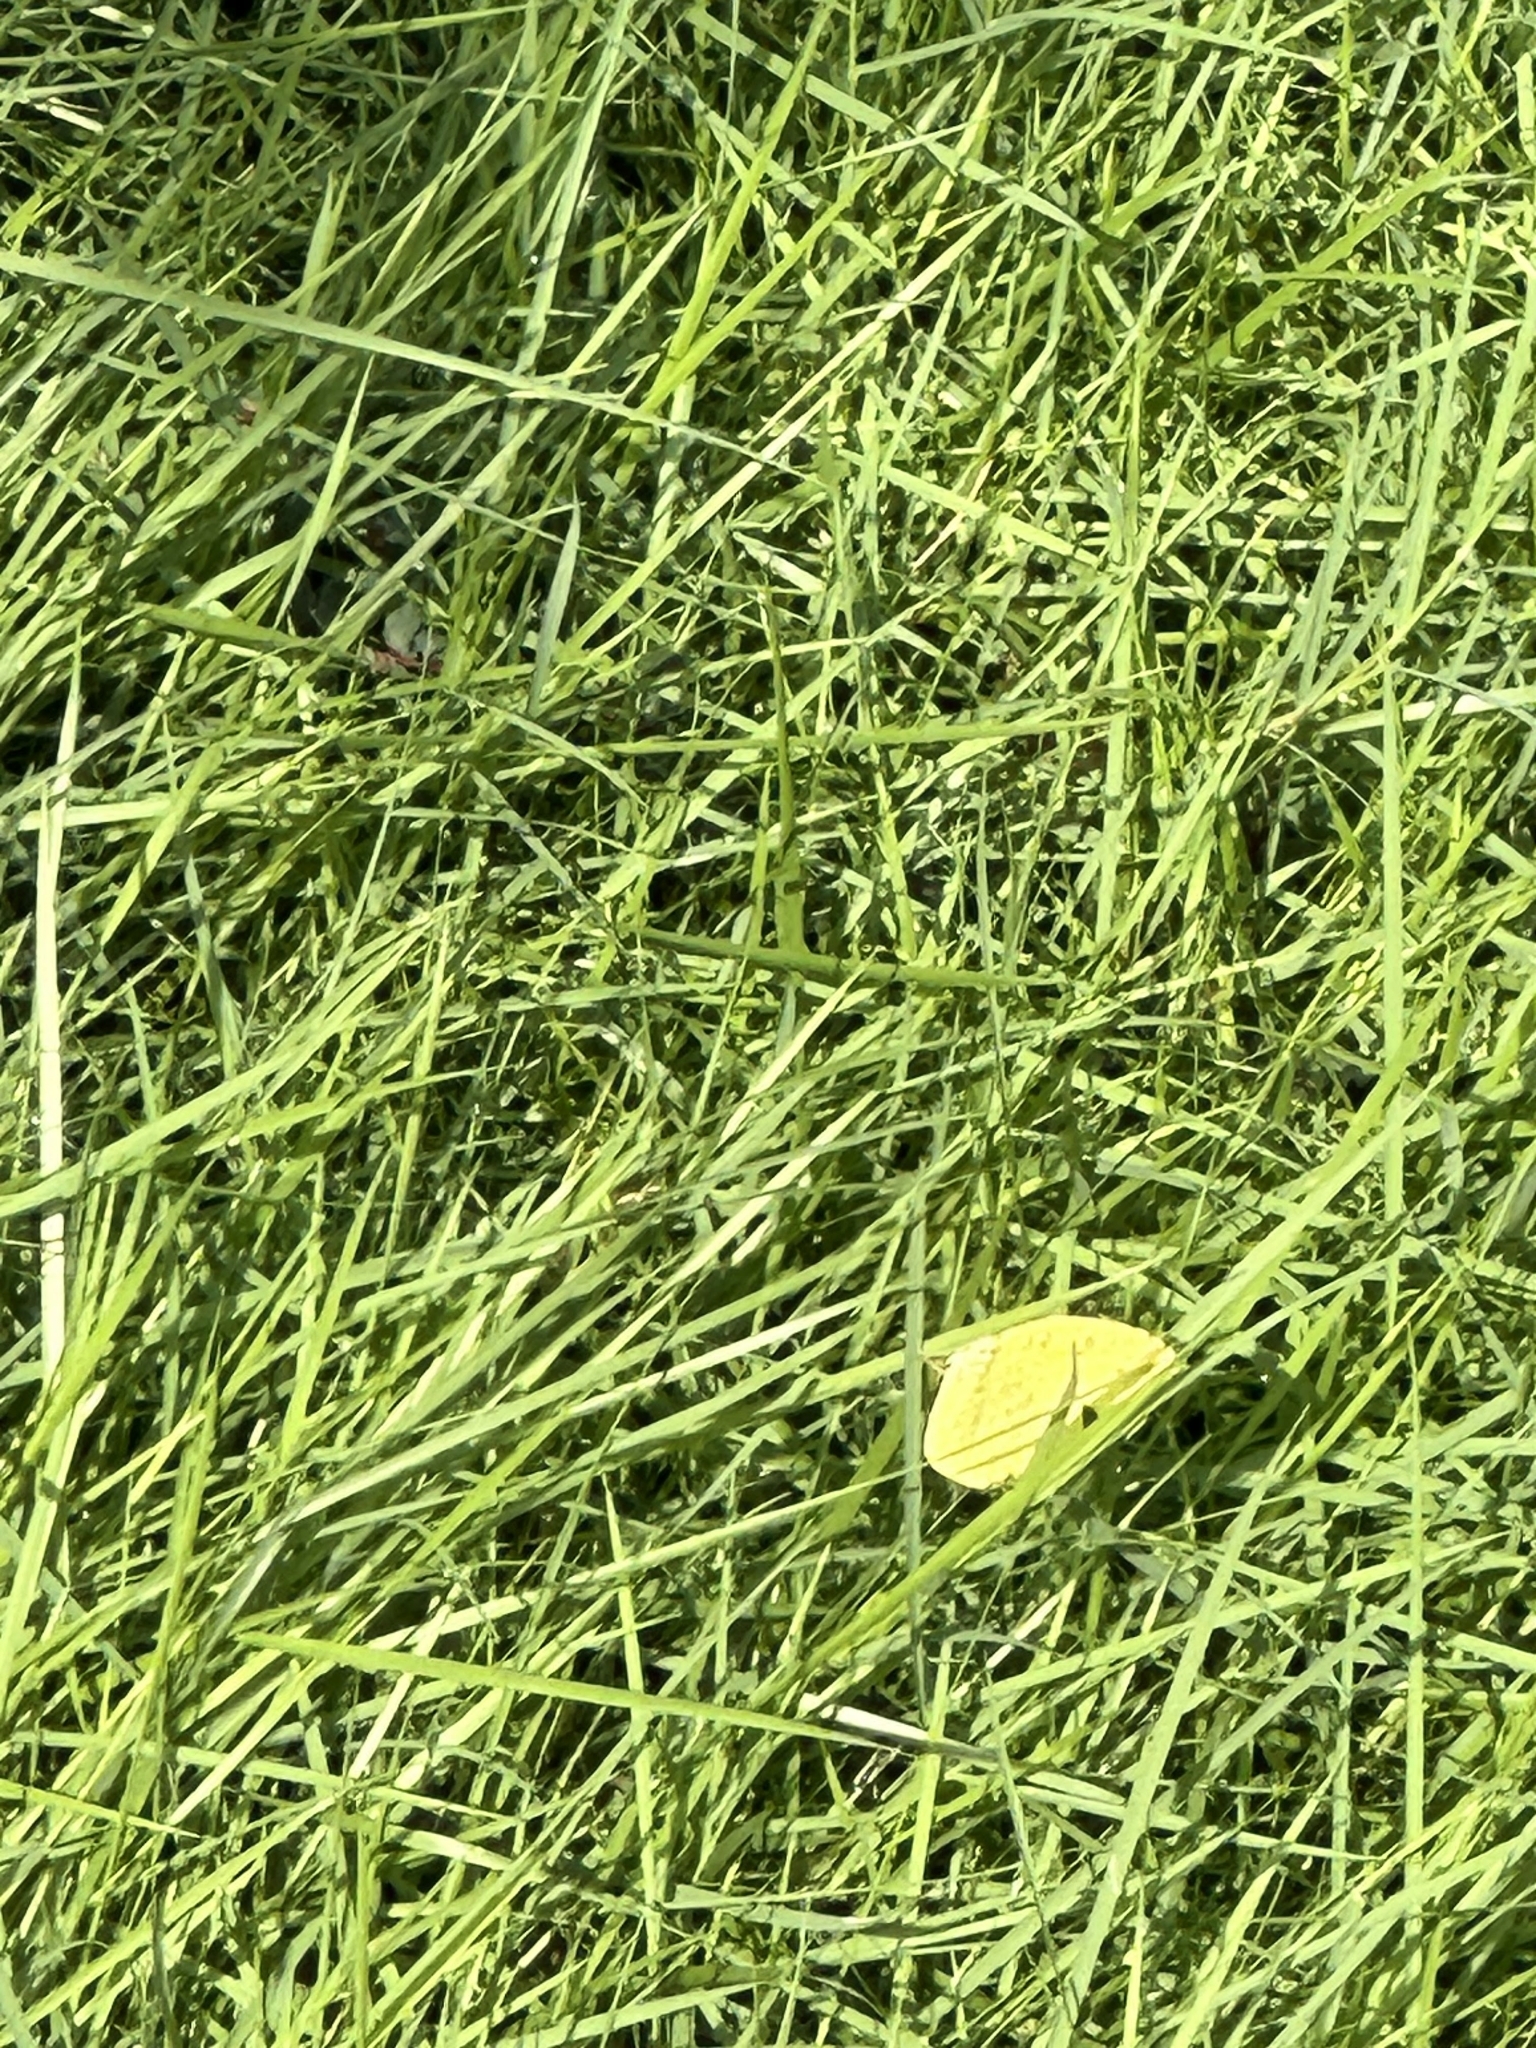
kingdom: Animalia
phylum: Arthropoda
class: Insecta
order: Lepidoptera
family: Pieridae
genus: Eurema
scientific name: Eurema hecabe
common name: Pale grass yellow
